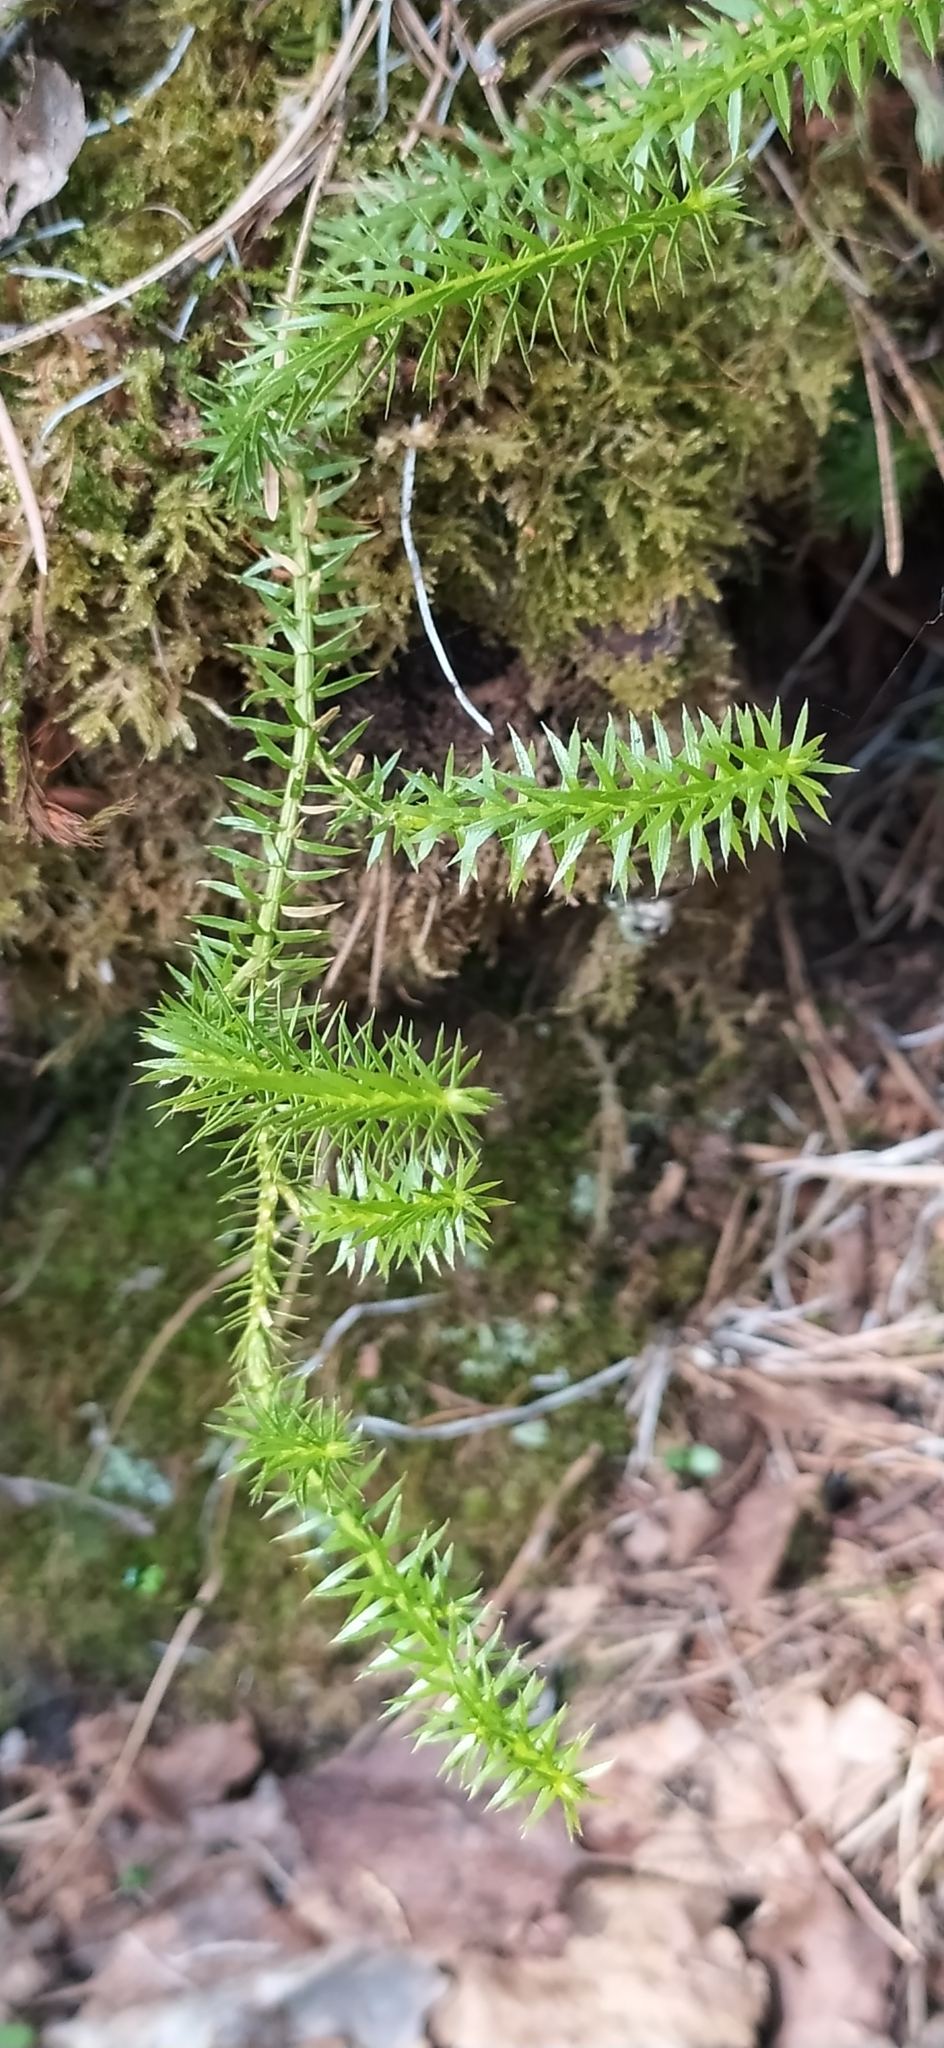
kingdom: Plantae
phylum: Tracheophyta
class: Lycopodiopsida
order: Lycopodiales
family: Lycopodiaceae
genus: Spinulum
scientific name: Spinulum annotinum
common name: Interrupted club-moss
